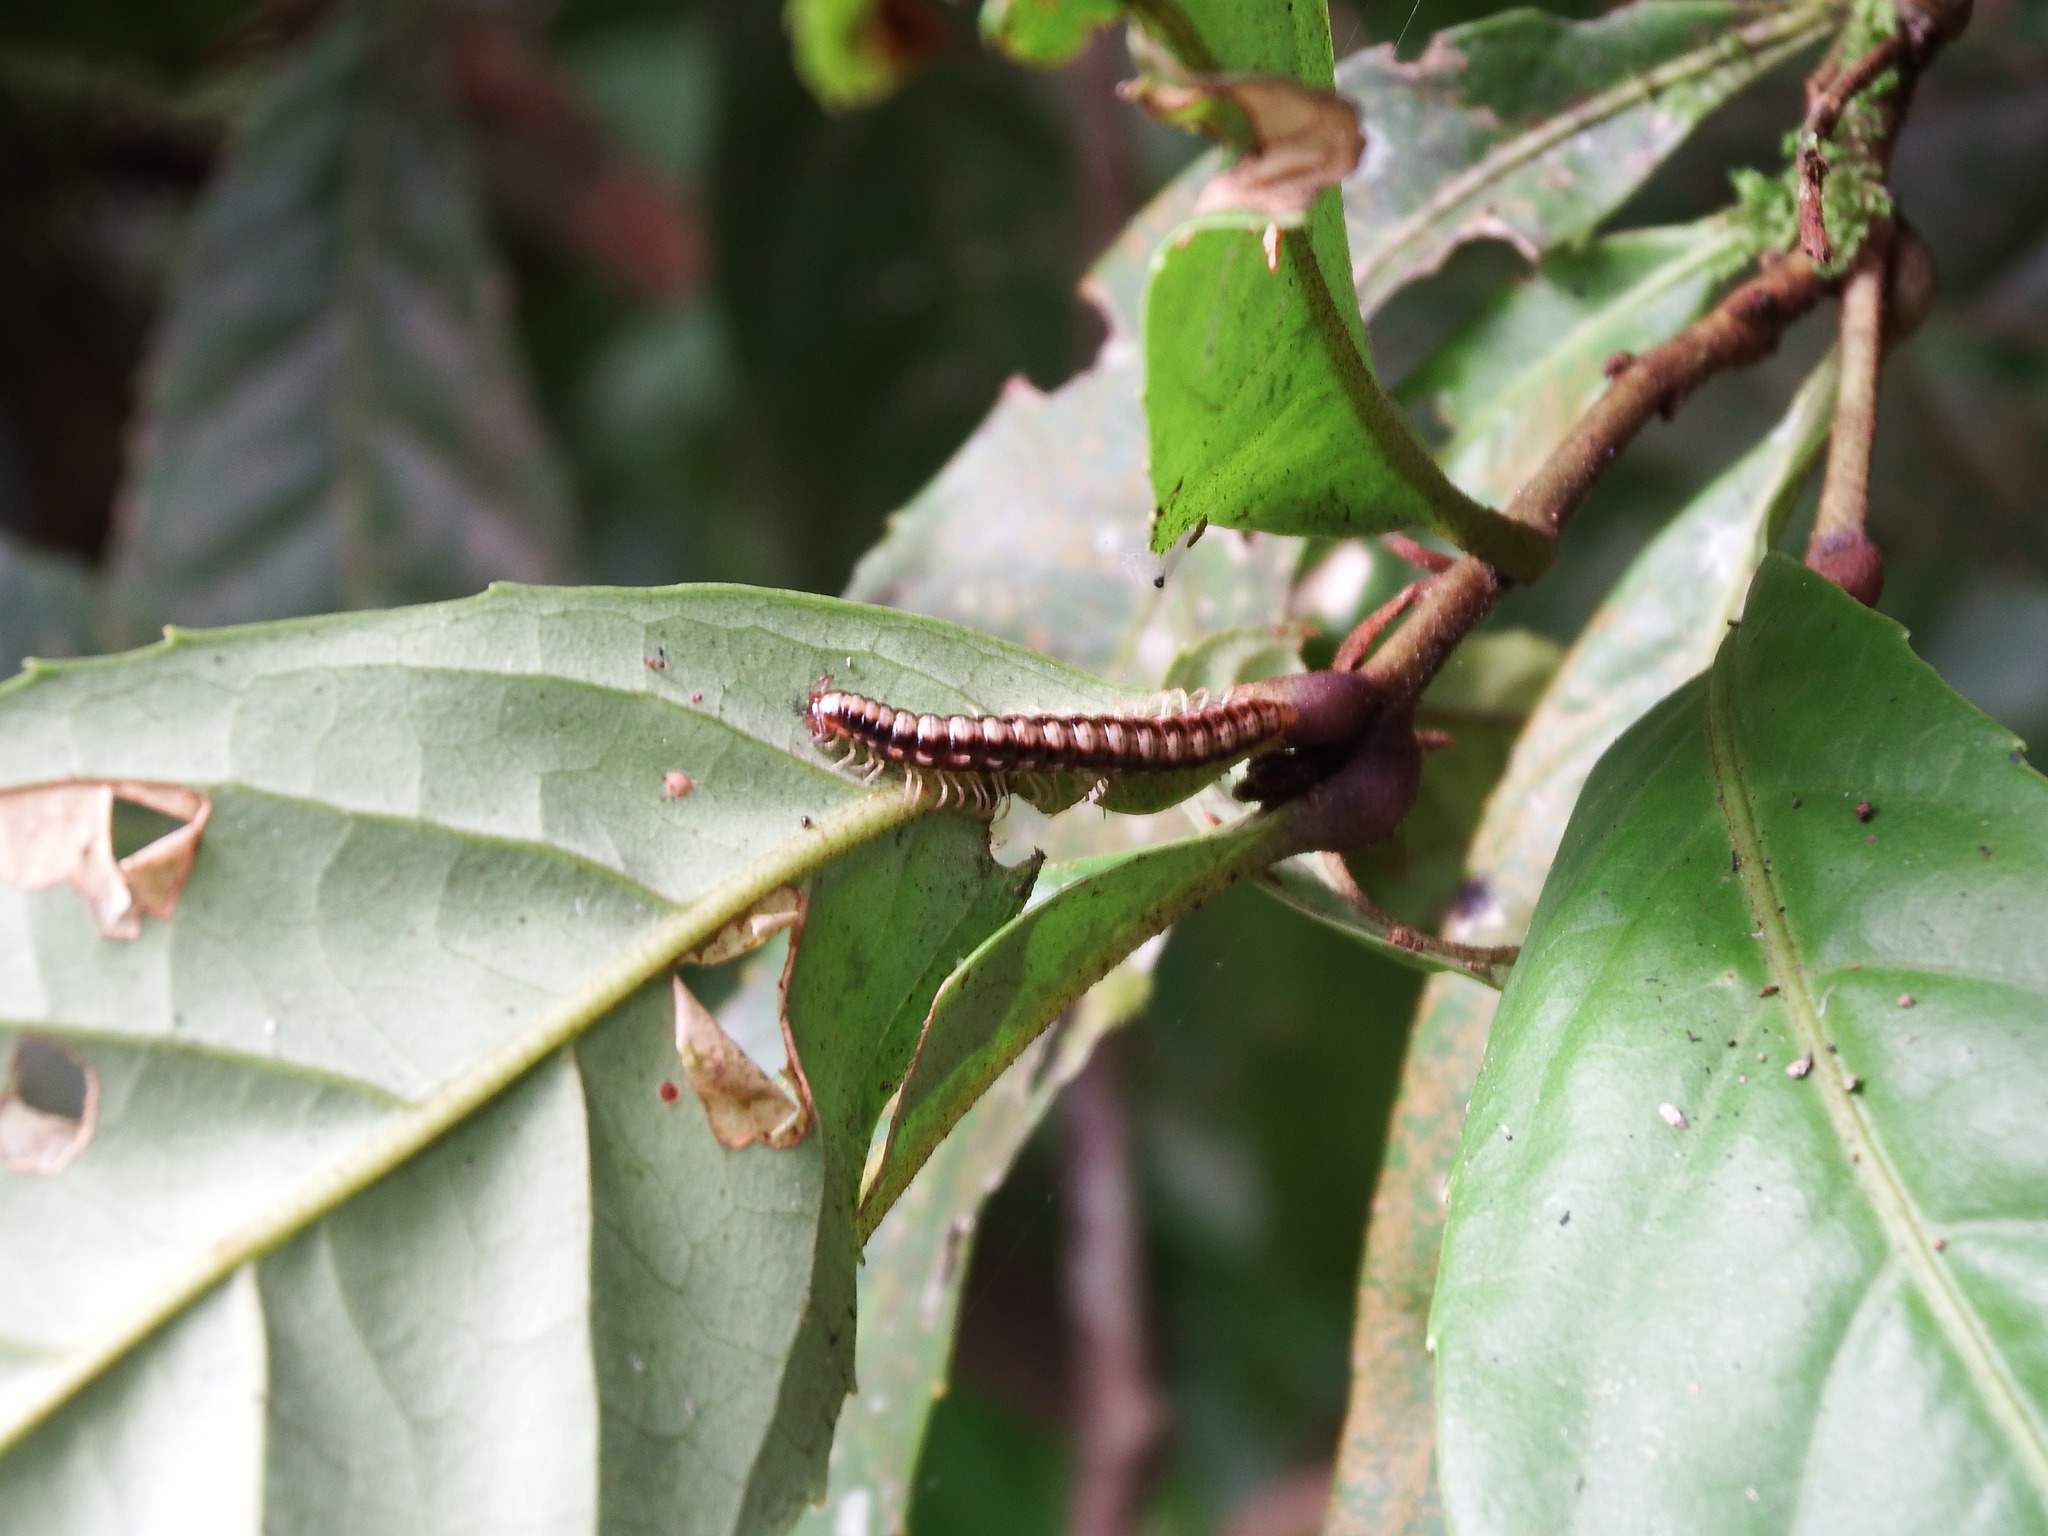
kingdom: Animalia
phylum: Arthropoda
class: Diplopoda
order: Polydesmida
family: Paradoxosomatidae
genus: Helicorthomorpha
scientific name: Helicorthomorpha holstii
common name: Millipede
